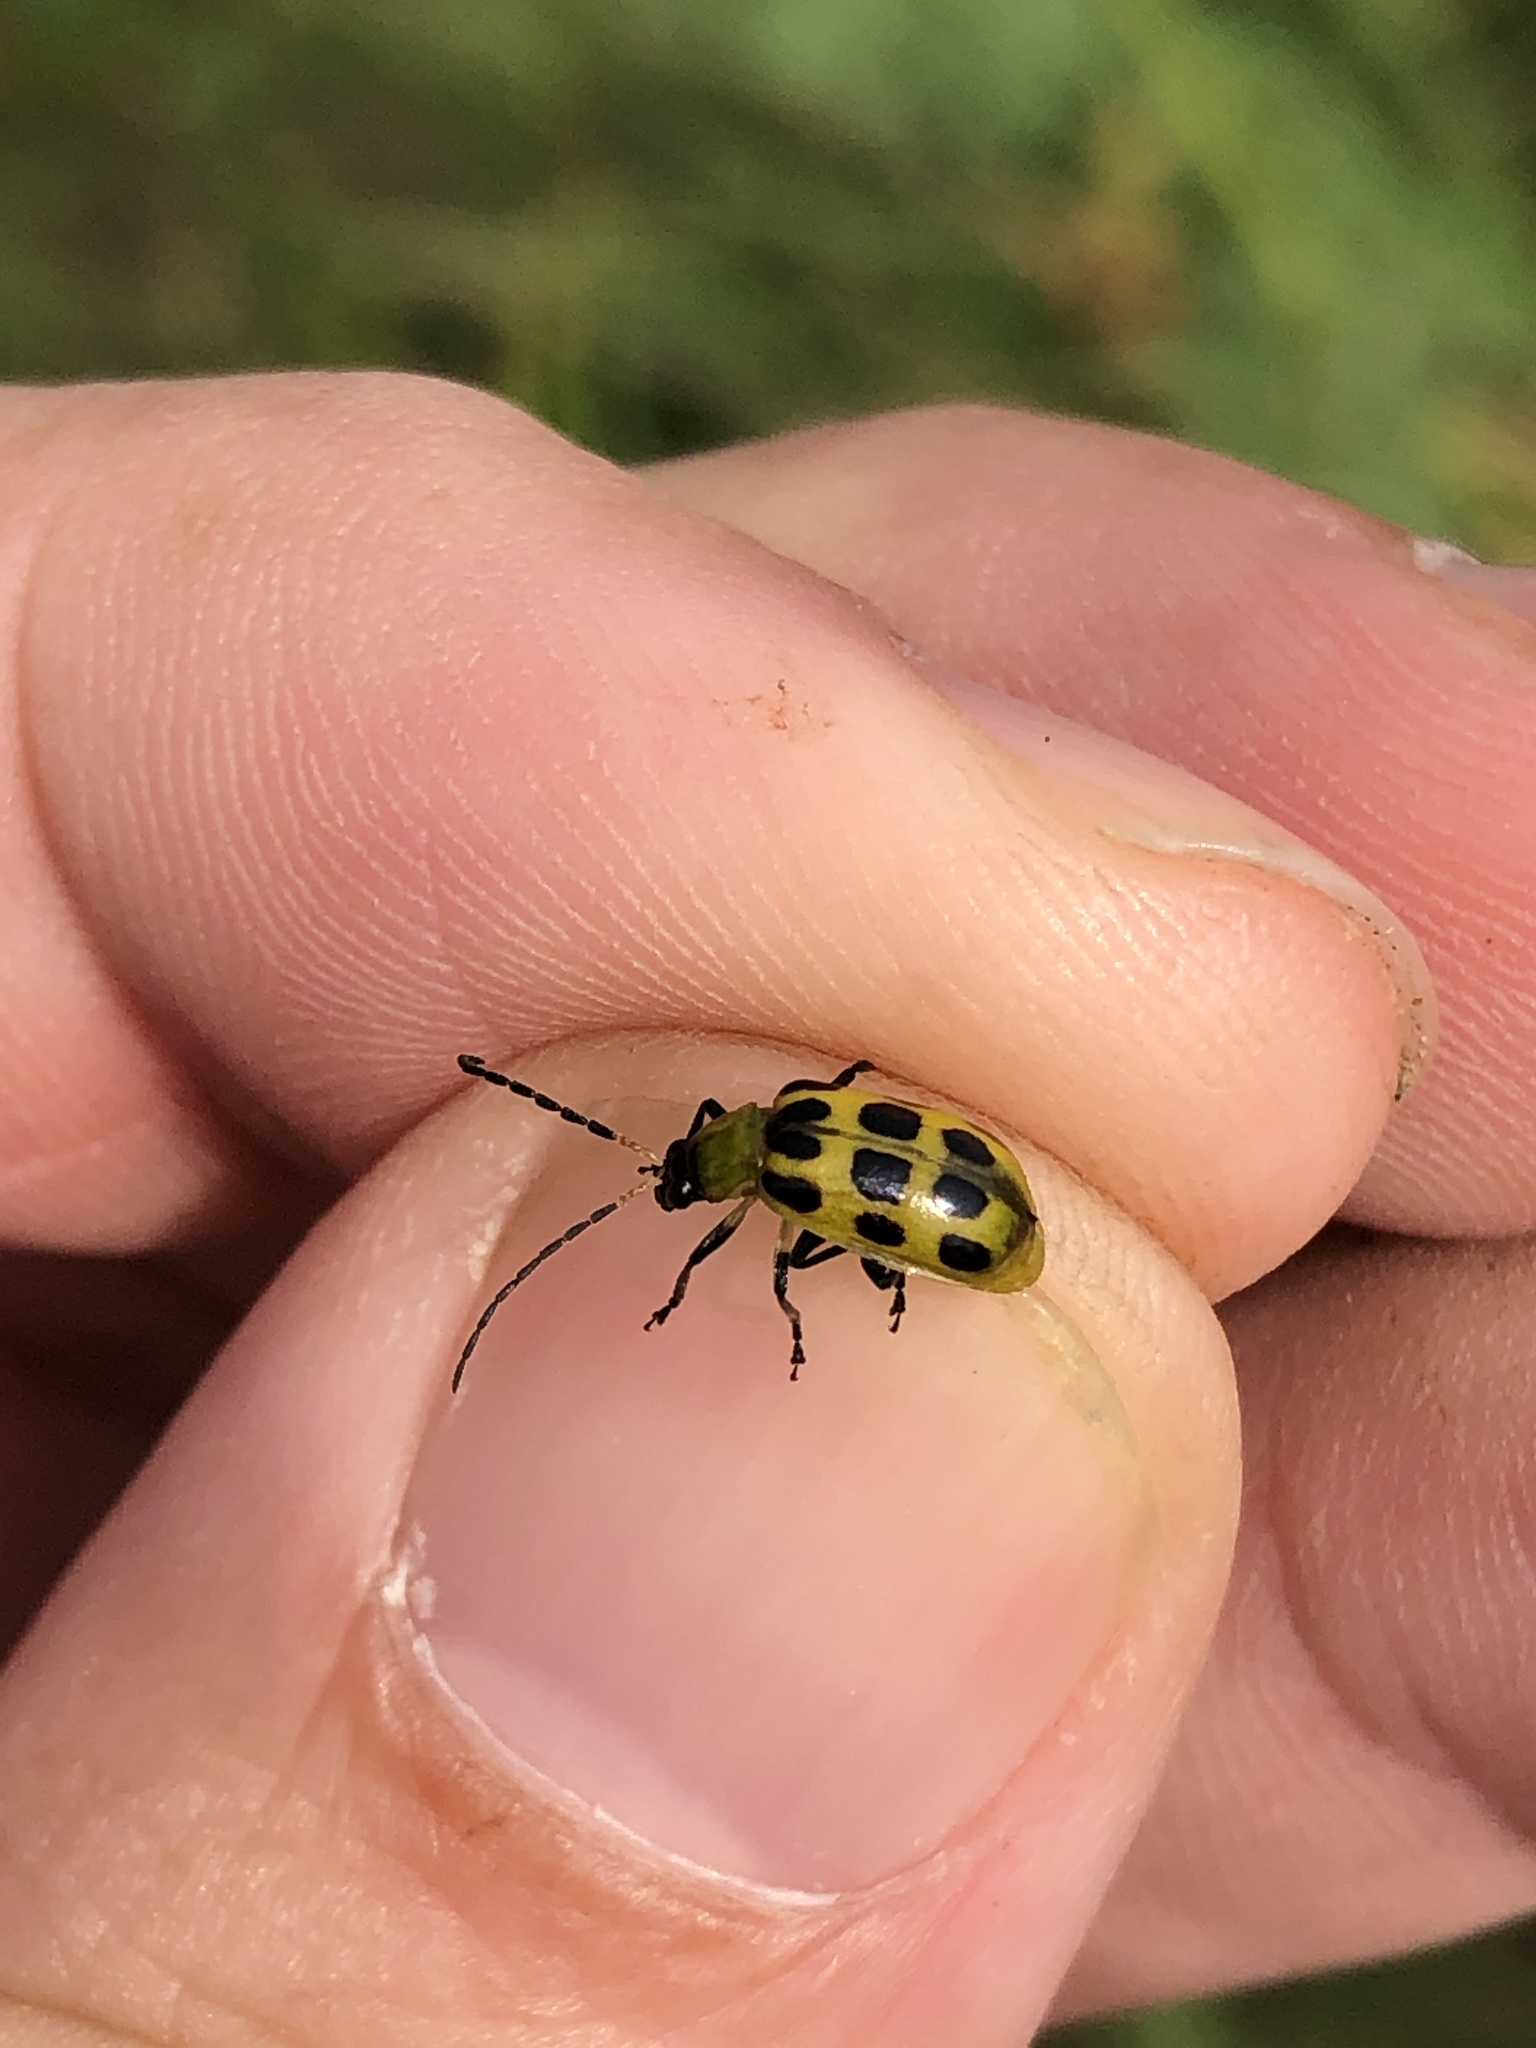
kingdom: Animalia
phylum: Arthropoda
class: Insecta
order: Coleoptera
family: Chrysomelidae
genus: Diabrotica
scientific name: Diabrotica undecimpunctata
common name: Spotted cucumber beetle
